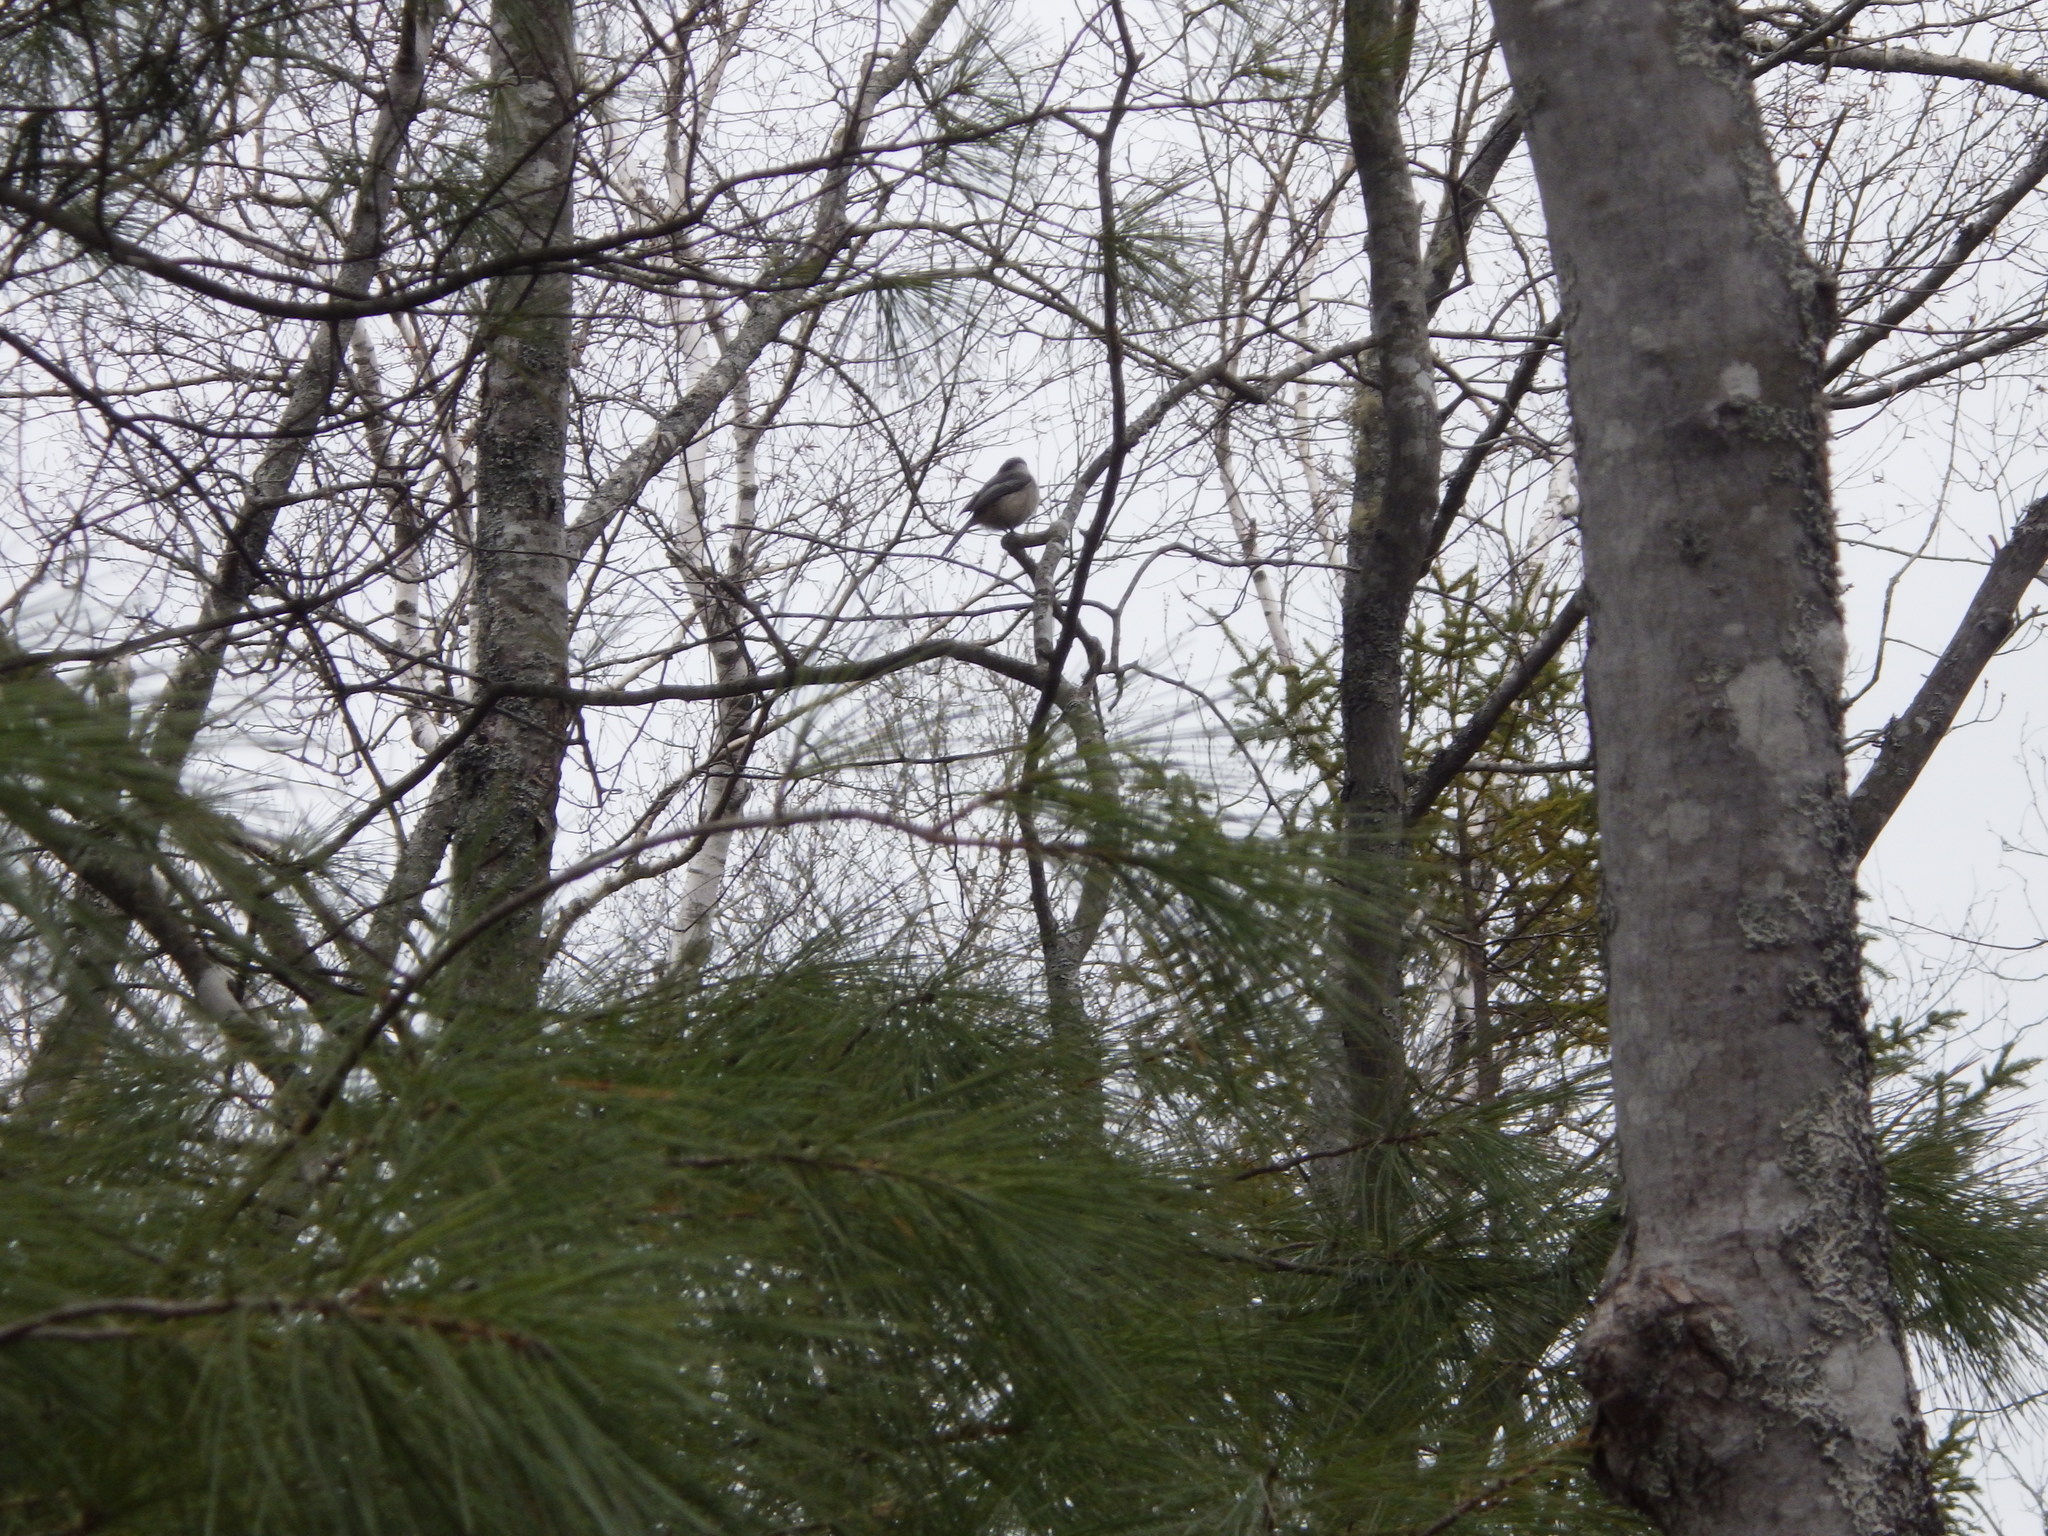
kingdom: Animalia
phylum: Chordata
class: Aves
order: Passeriformes
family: Paridae
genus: Poecile
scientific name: Poecile atricapillus
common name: Black-capped chickadee
